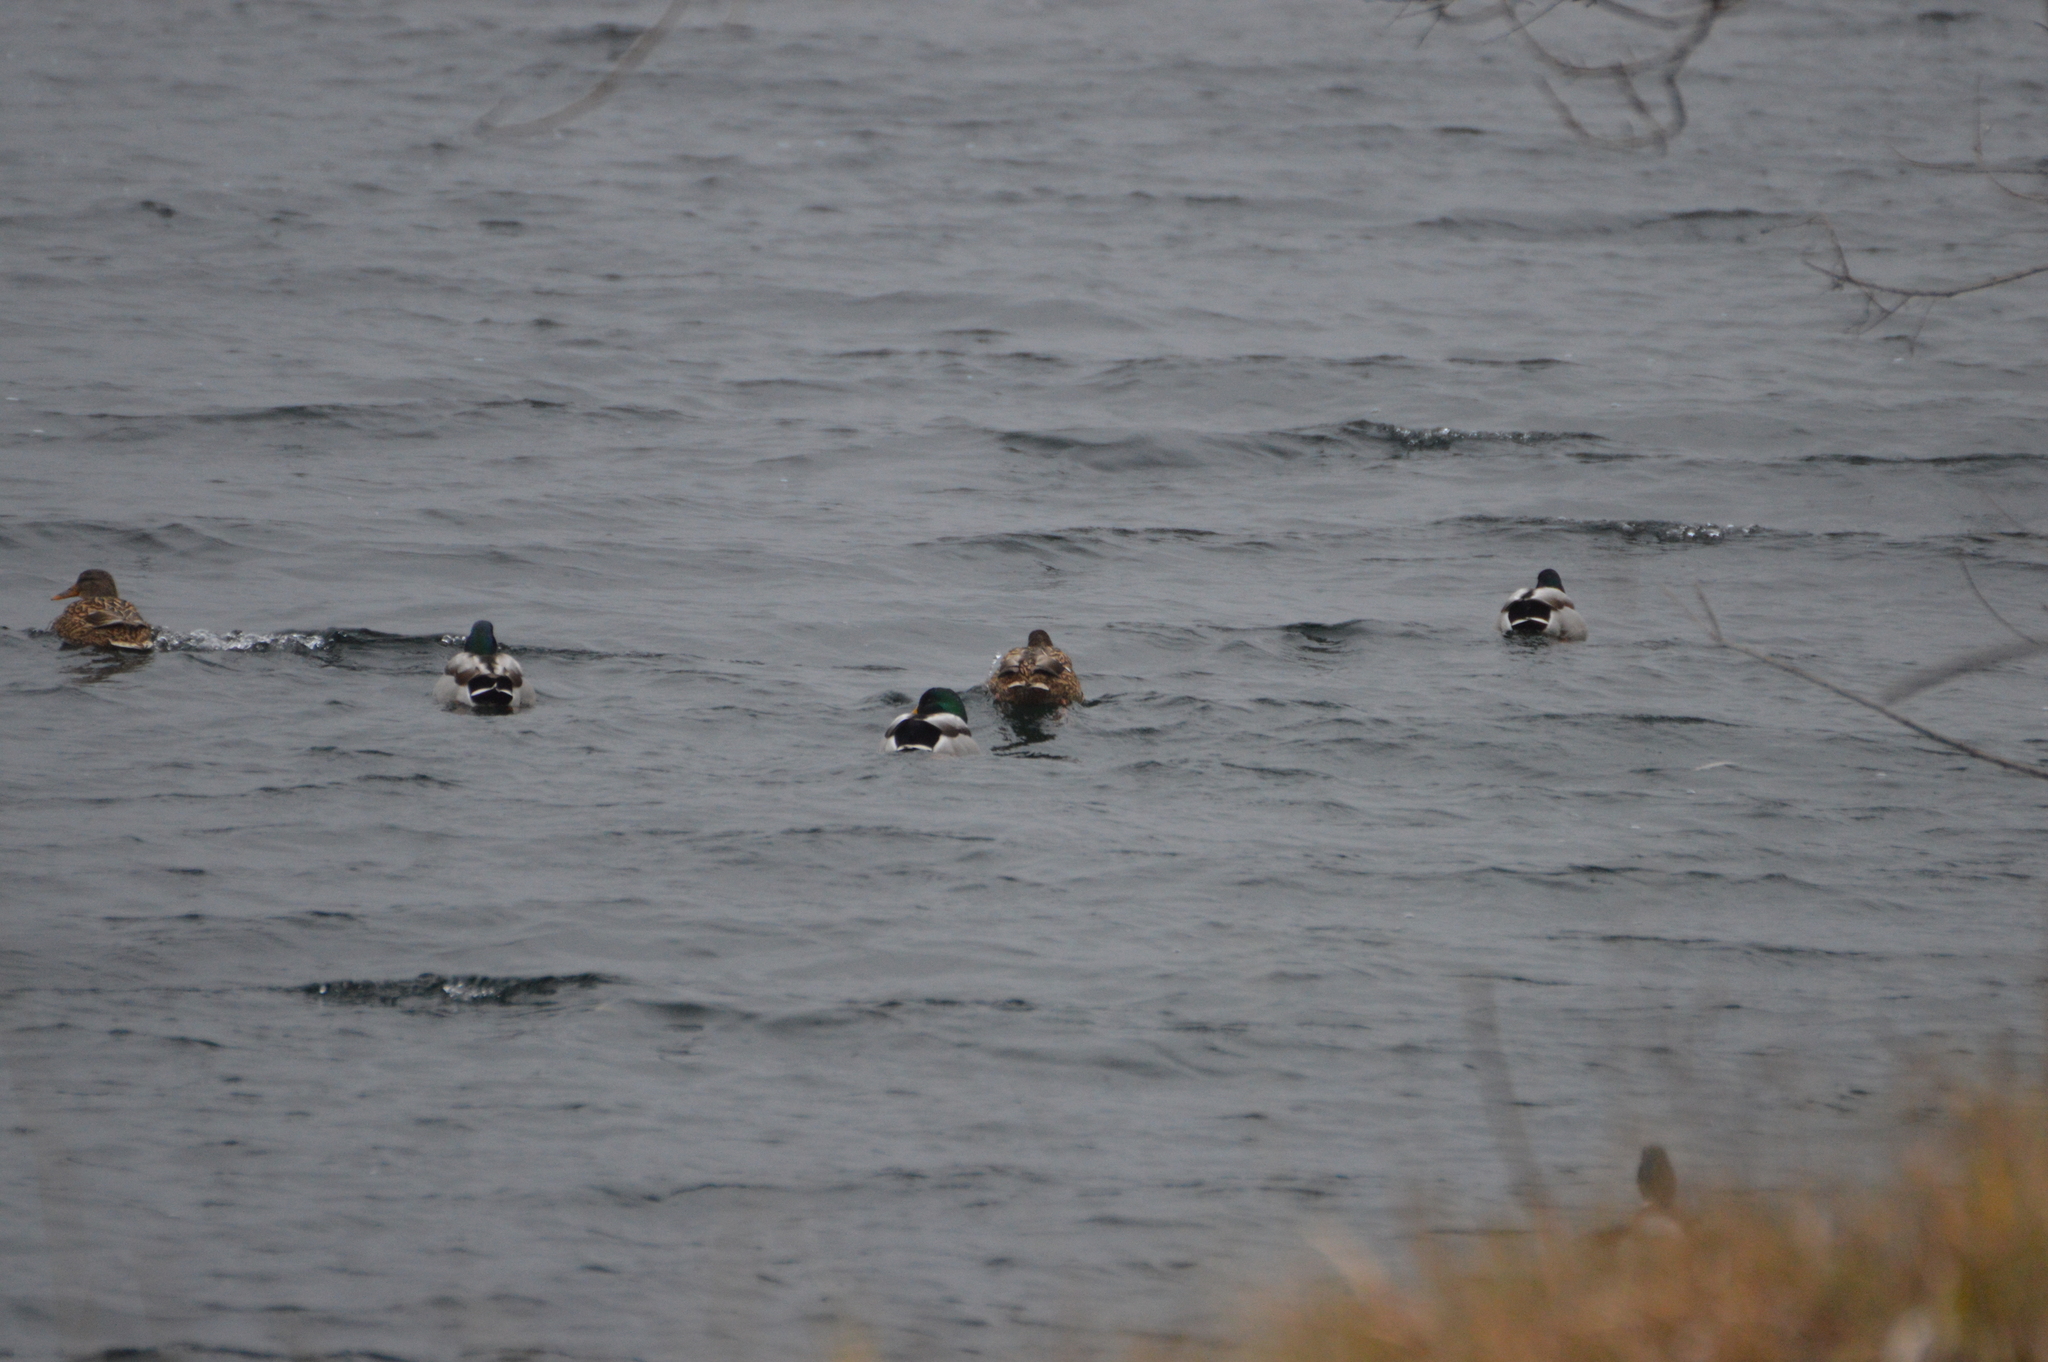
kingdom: Animalia
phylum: Chordata
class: Aves
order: Anseriformes
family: Anatidae
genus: Anas
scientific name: Anas platyrhynchos
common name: Mallard
